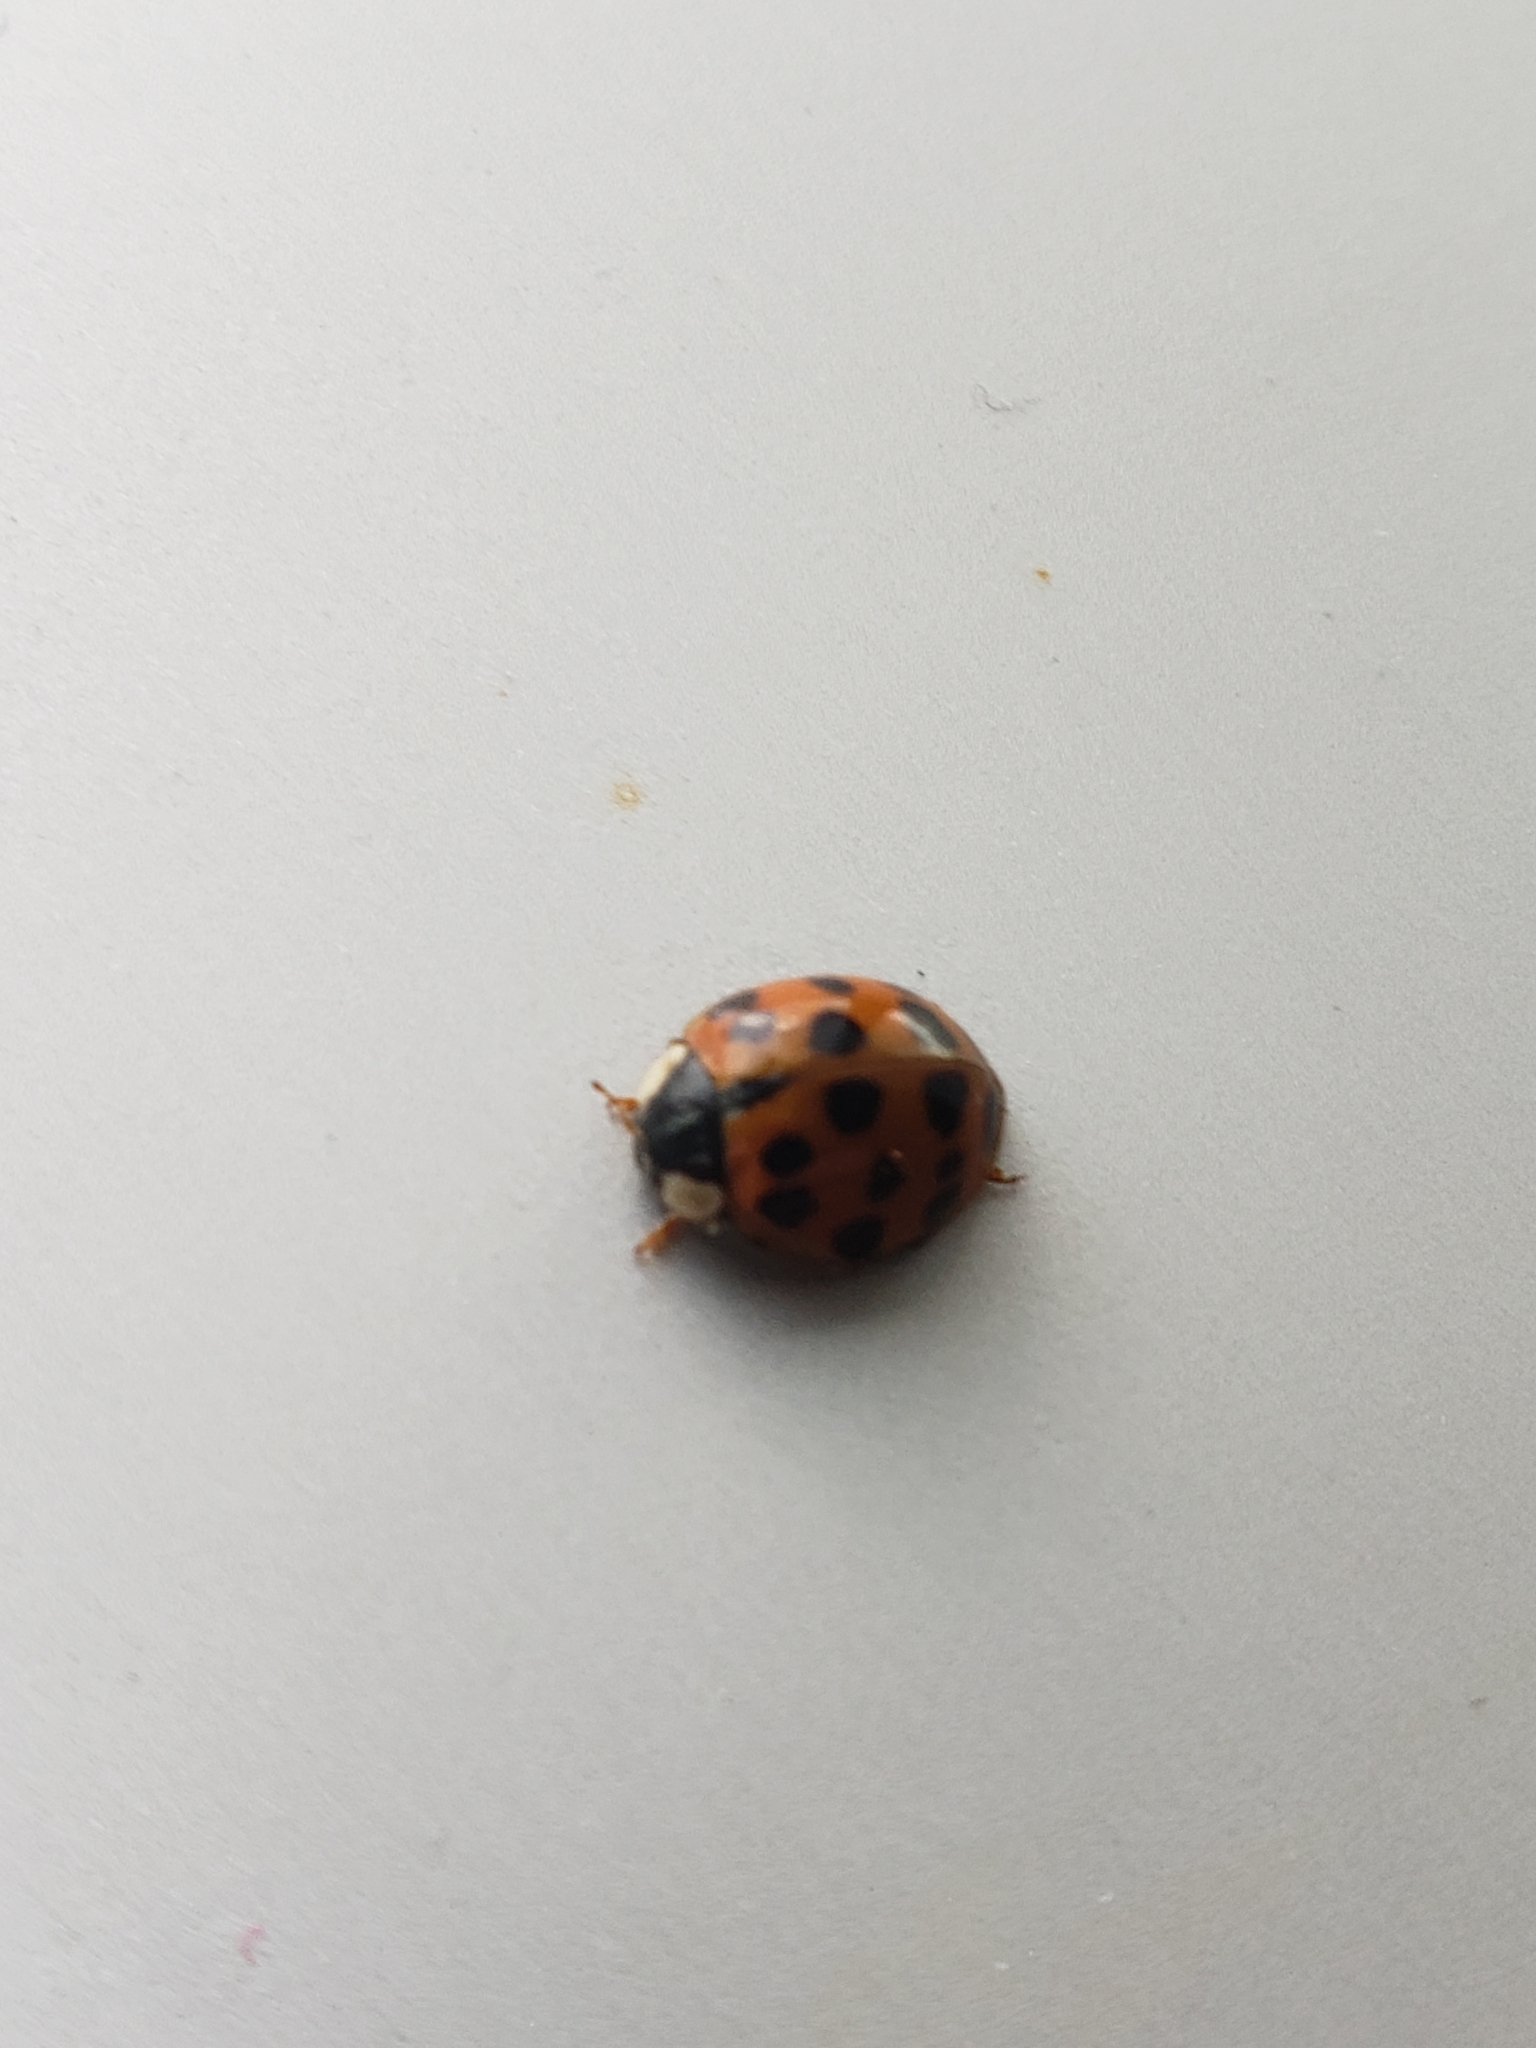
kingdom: Animalia
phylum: Arthropoda
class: Insecta
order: Coleoptera
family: Coccinellidae
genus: Harmonia
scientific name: Harmonia axyridis
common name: Harlequin ladybird
